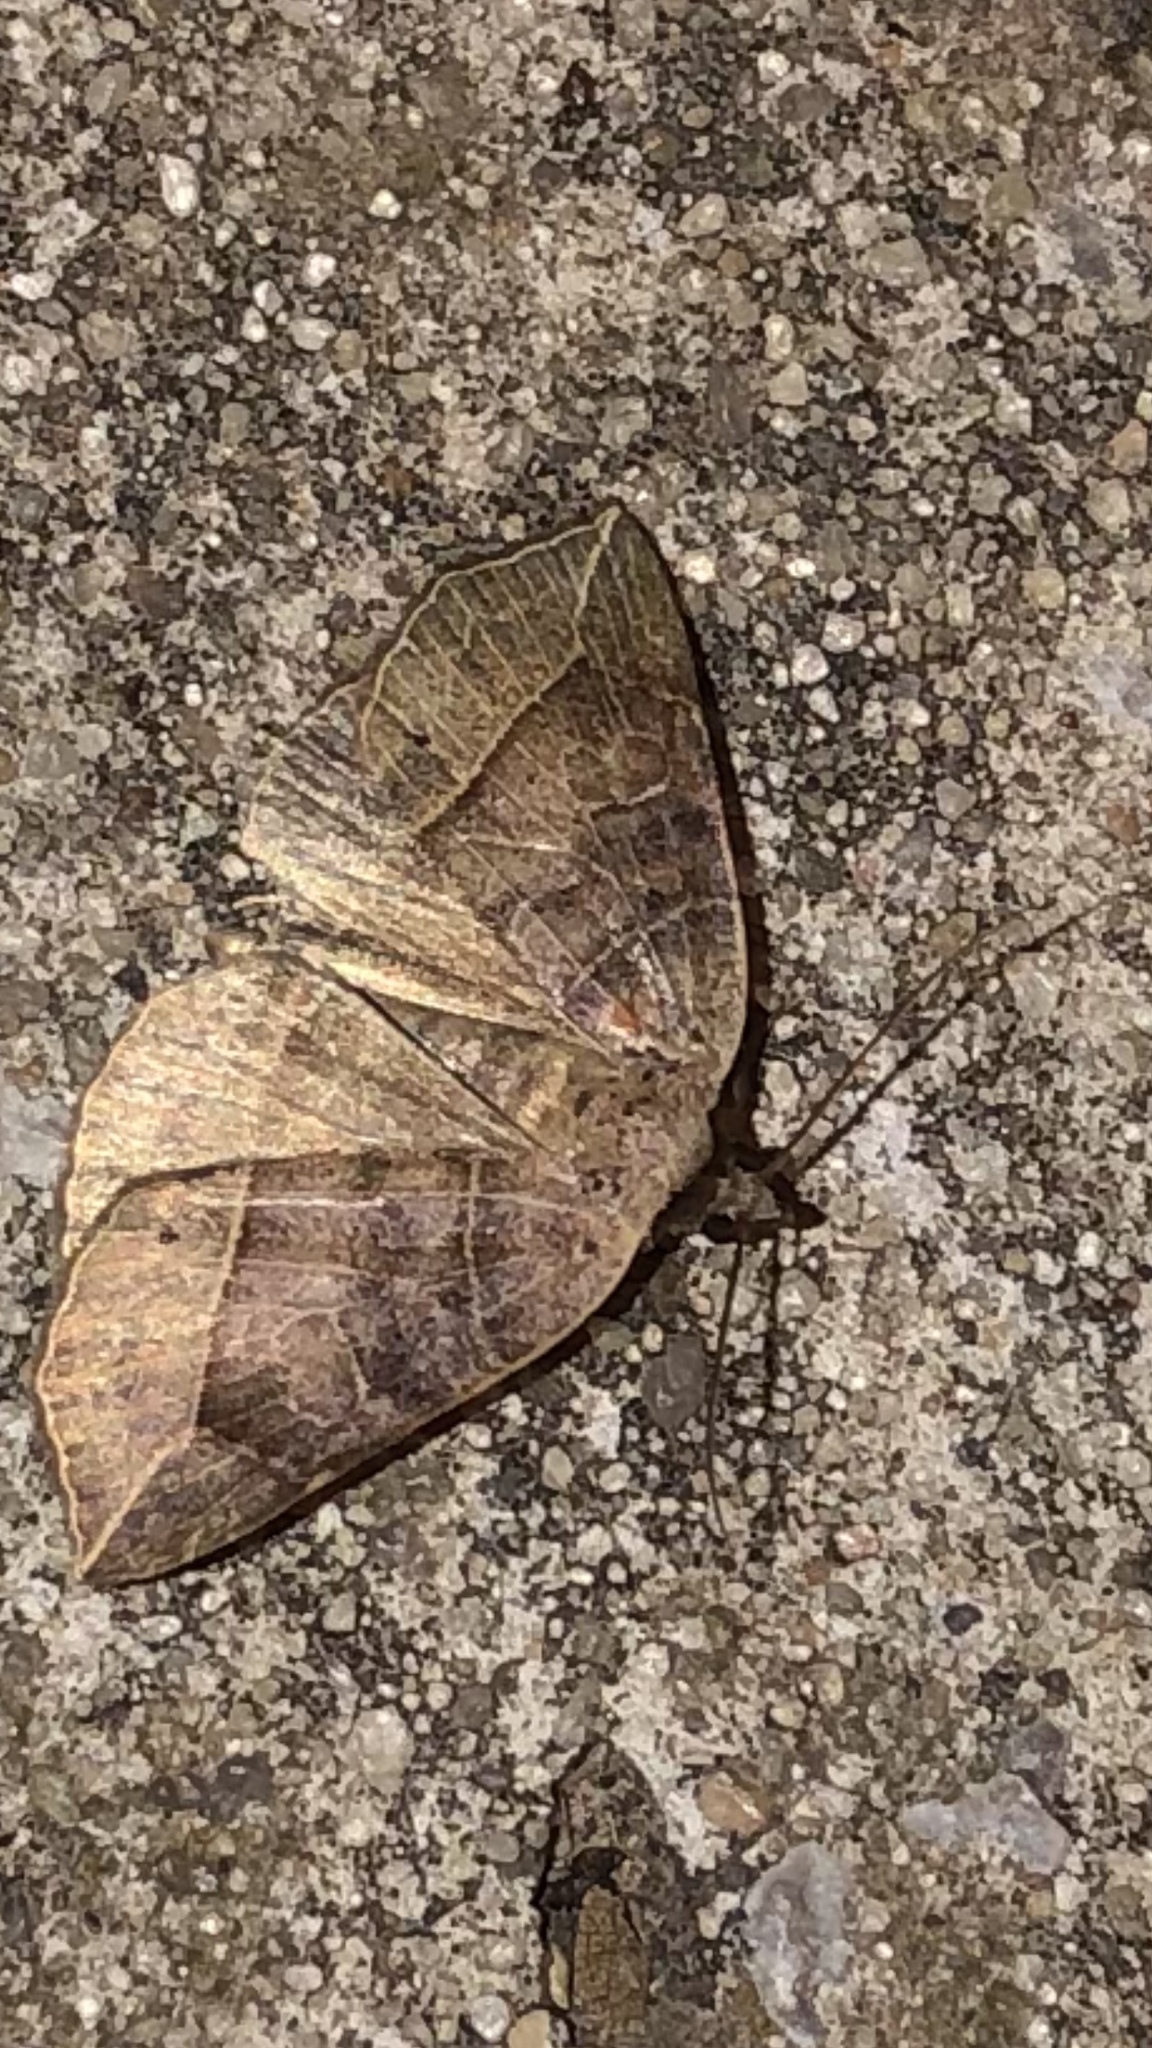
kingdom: Animalia
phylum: Arthropoda
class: Insecta
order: Lepidoptera
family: Erebidae
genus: Isogona
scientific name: Isogona tenuis
